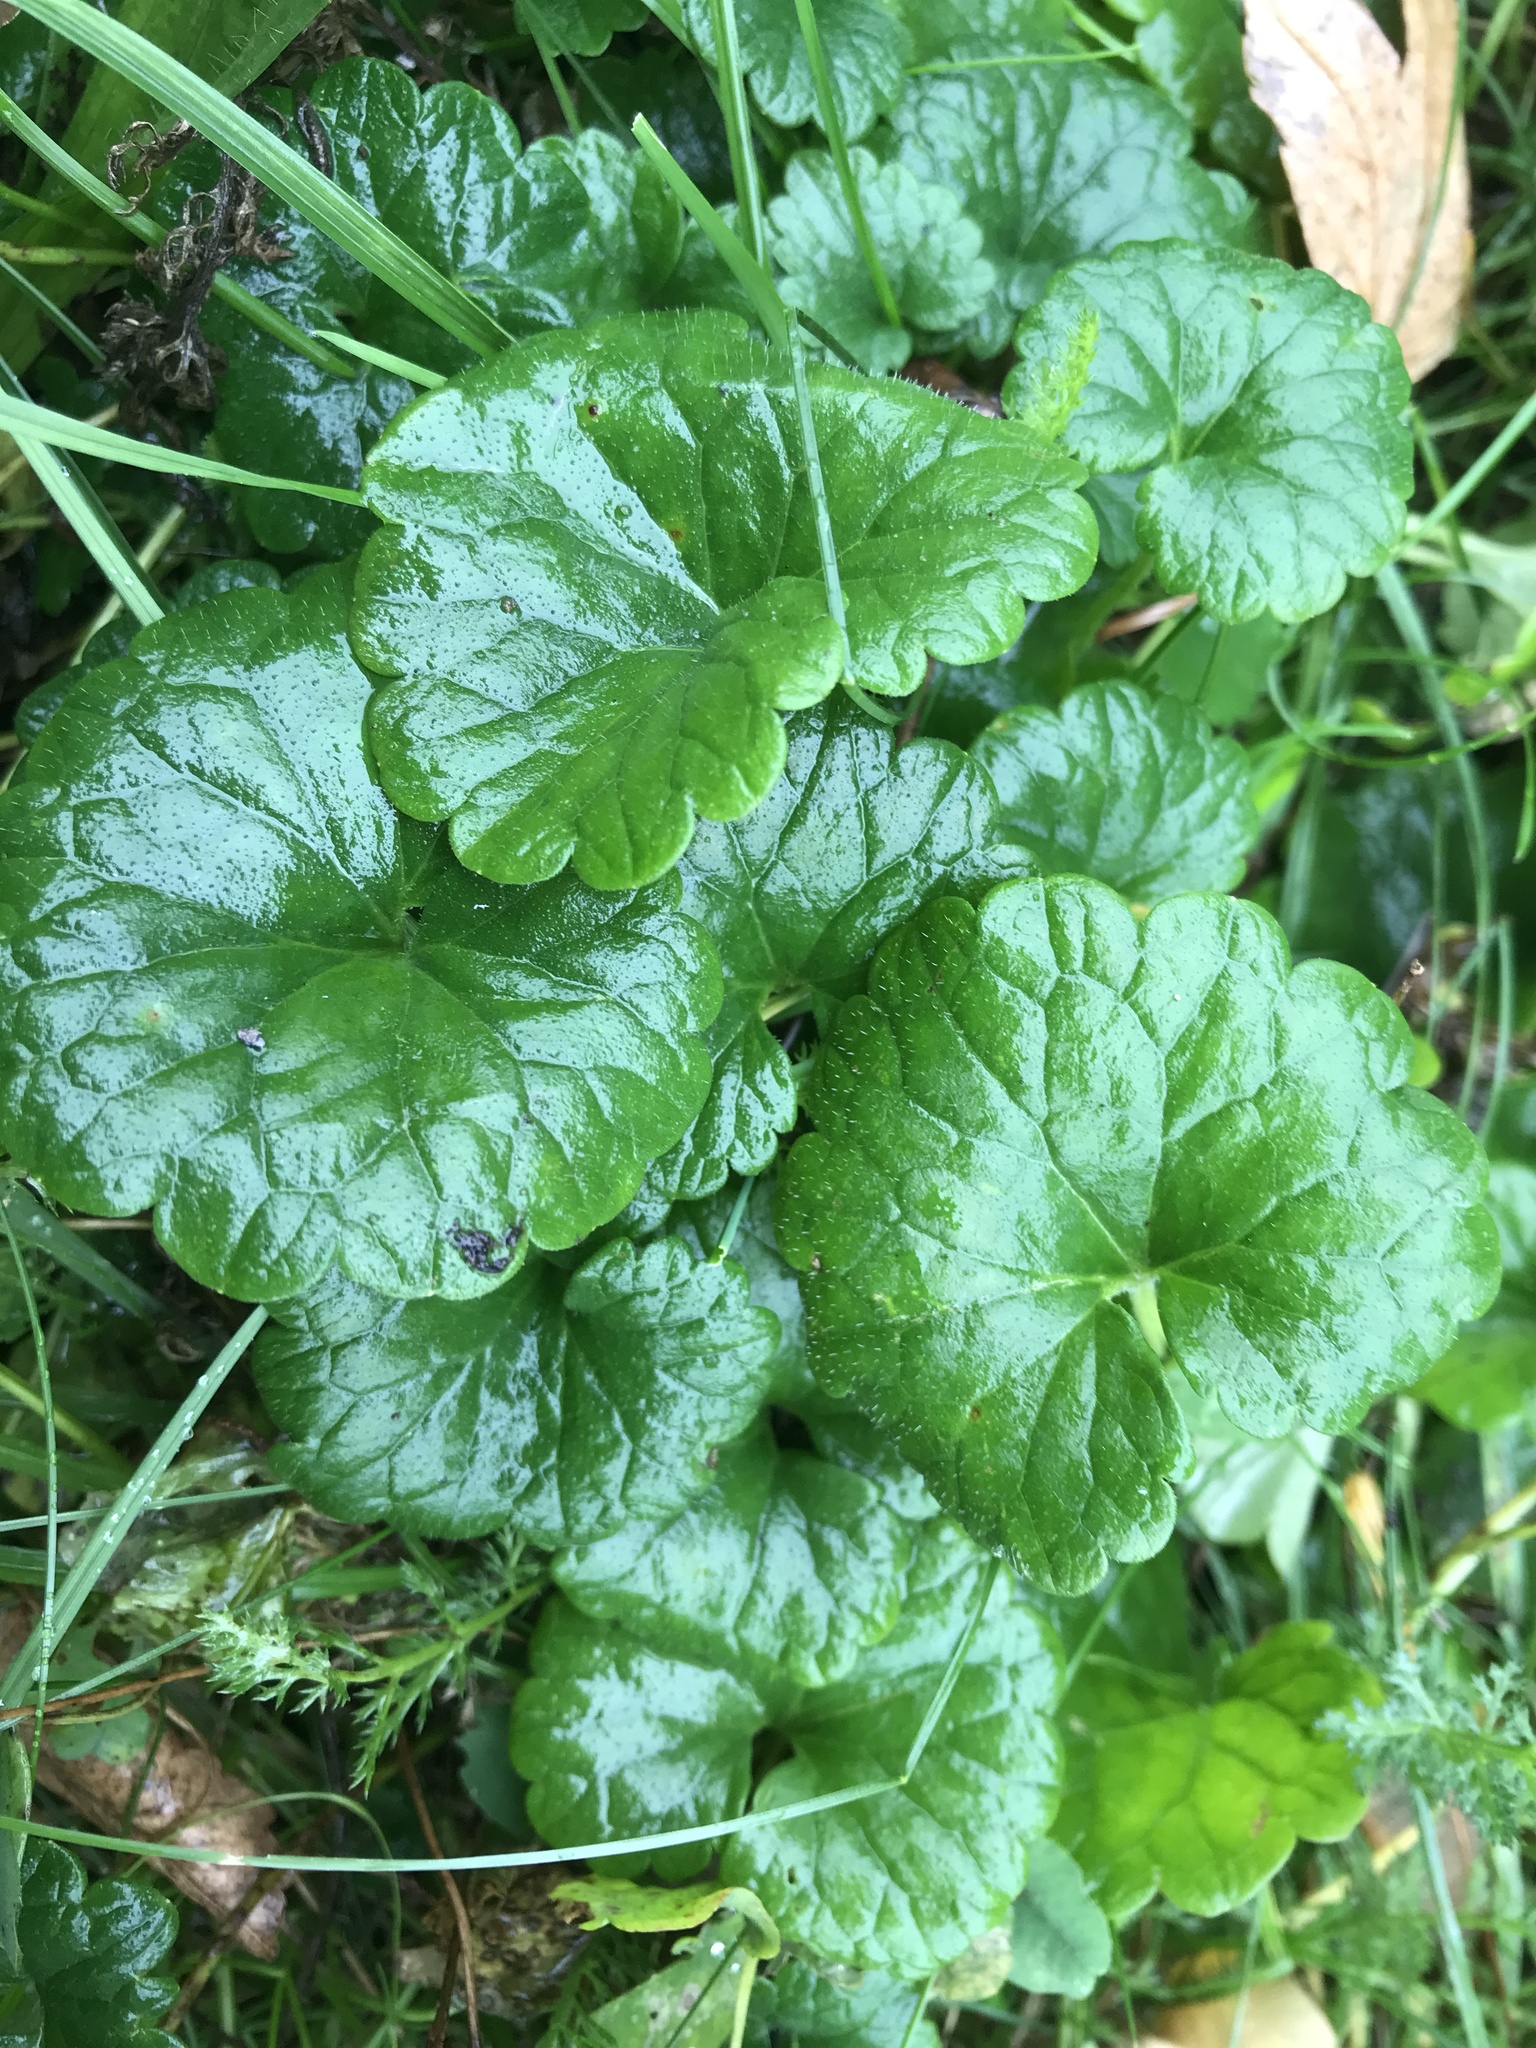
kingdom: Plantae
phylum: Tracheophyta
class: Magnoliopsida
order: Lamiales
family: Lamiaceae
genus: Glechoma
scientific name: Glechoma hederacea
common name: Ground ivy
